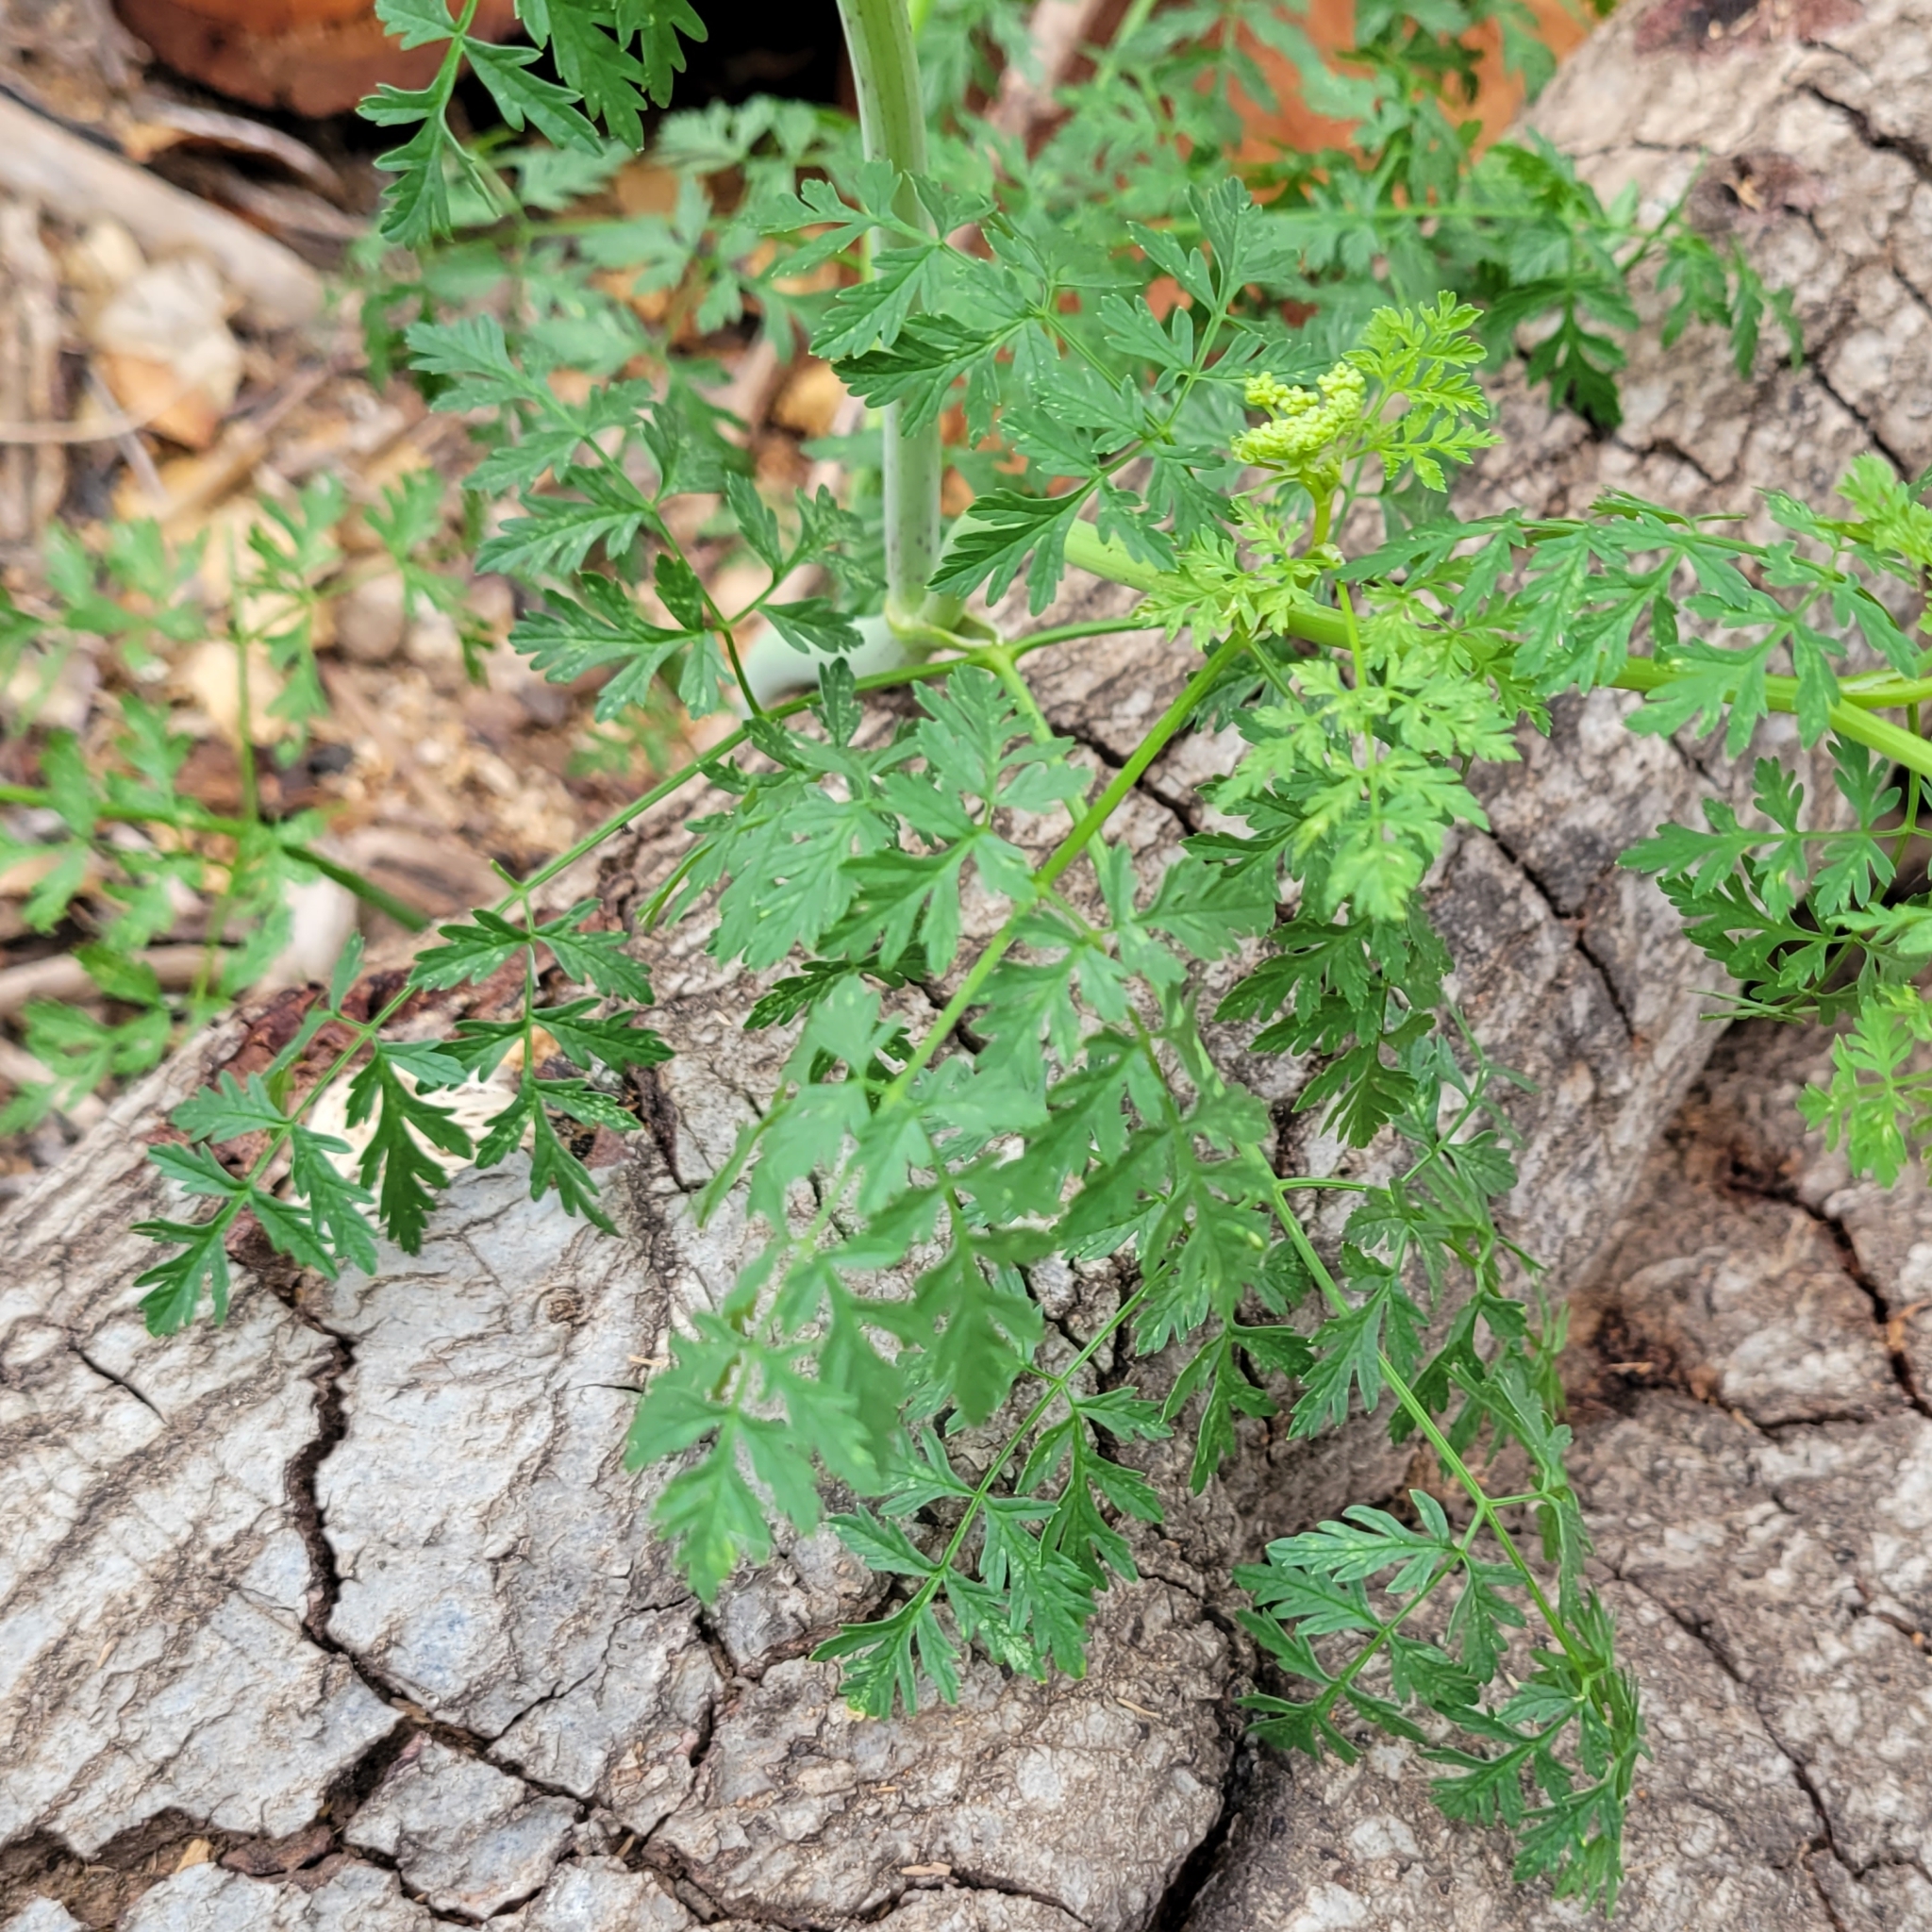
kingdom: Plantae
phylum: Tracheophyta
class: Magnoliopsida
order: Apiales
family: Apiaceae
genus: Conium
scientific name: Conium maculatum
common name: Hemlock
